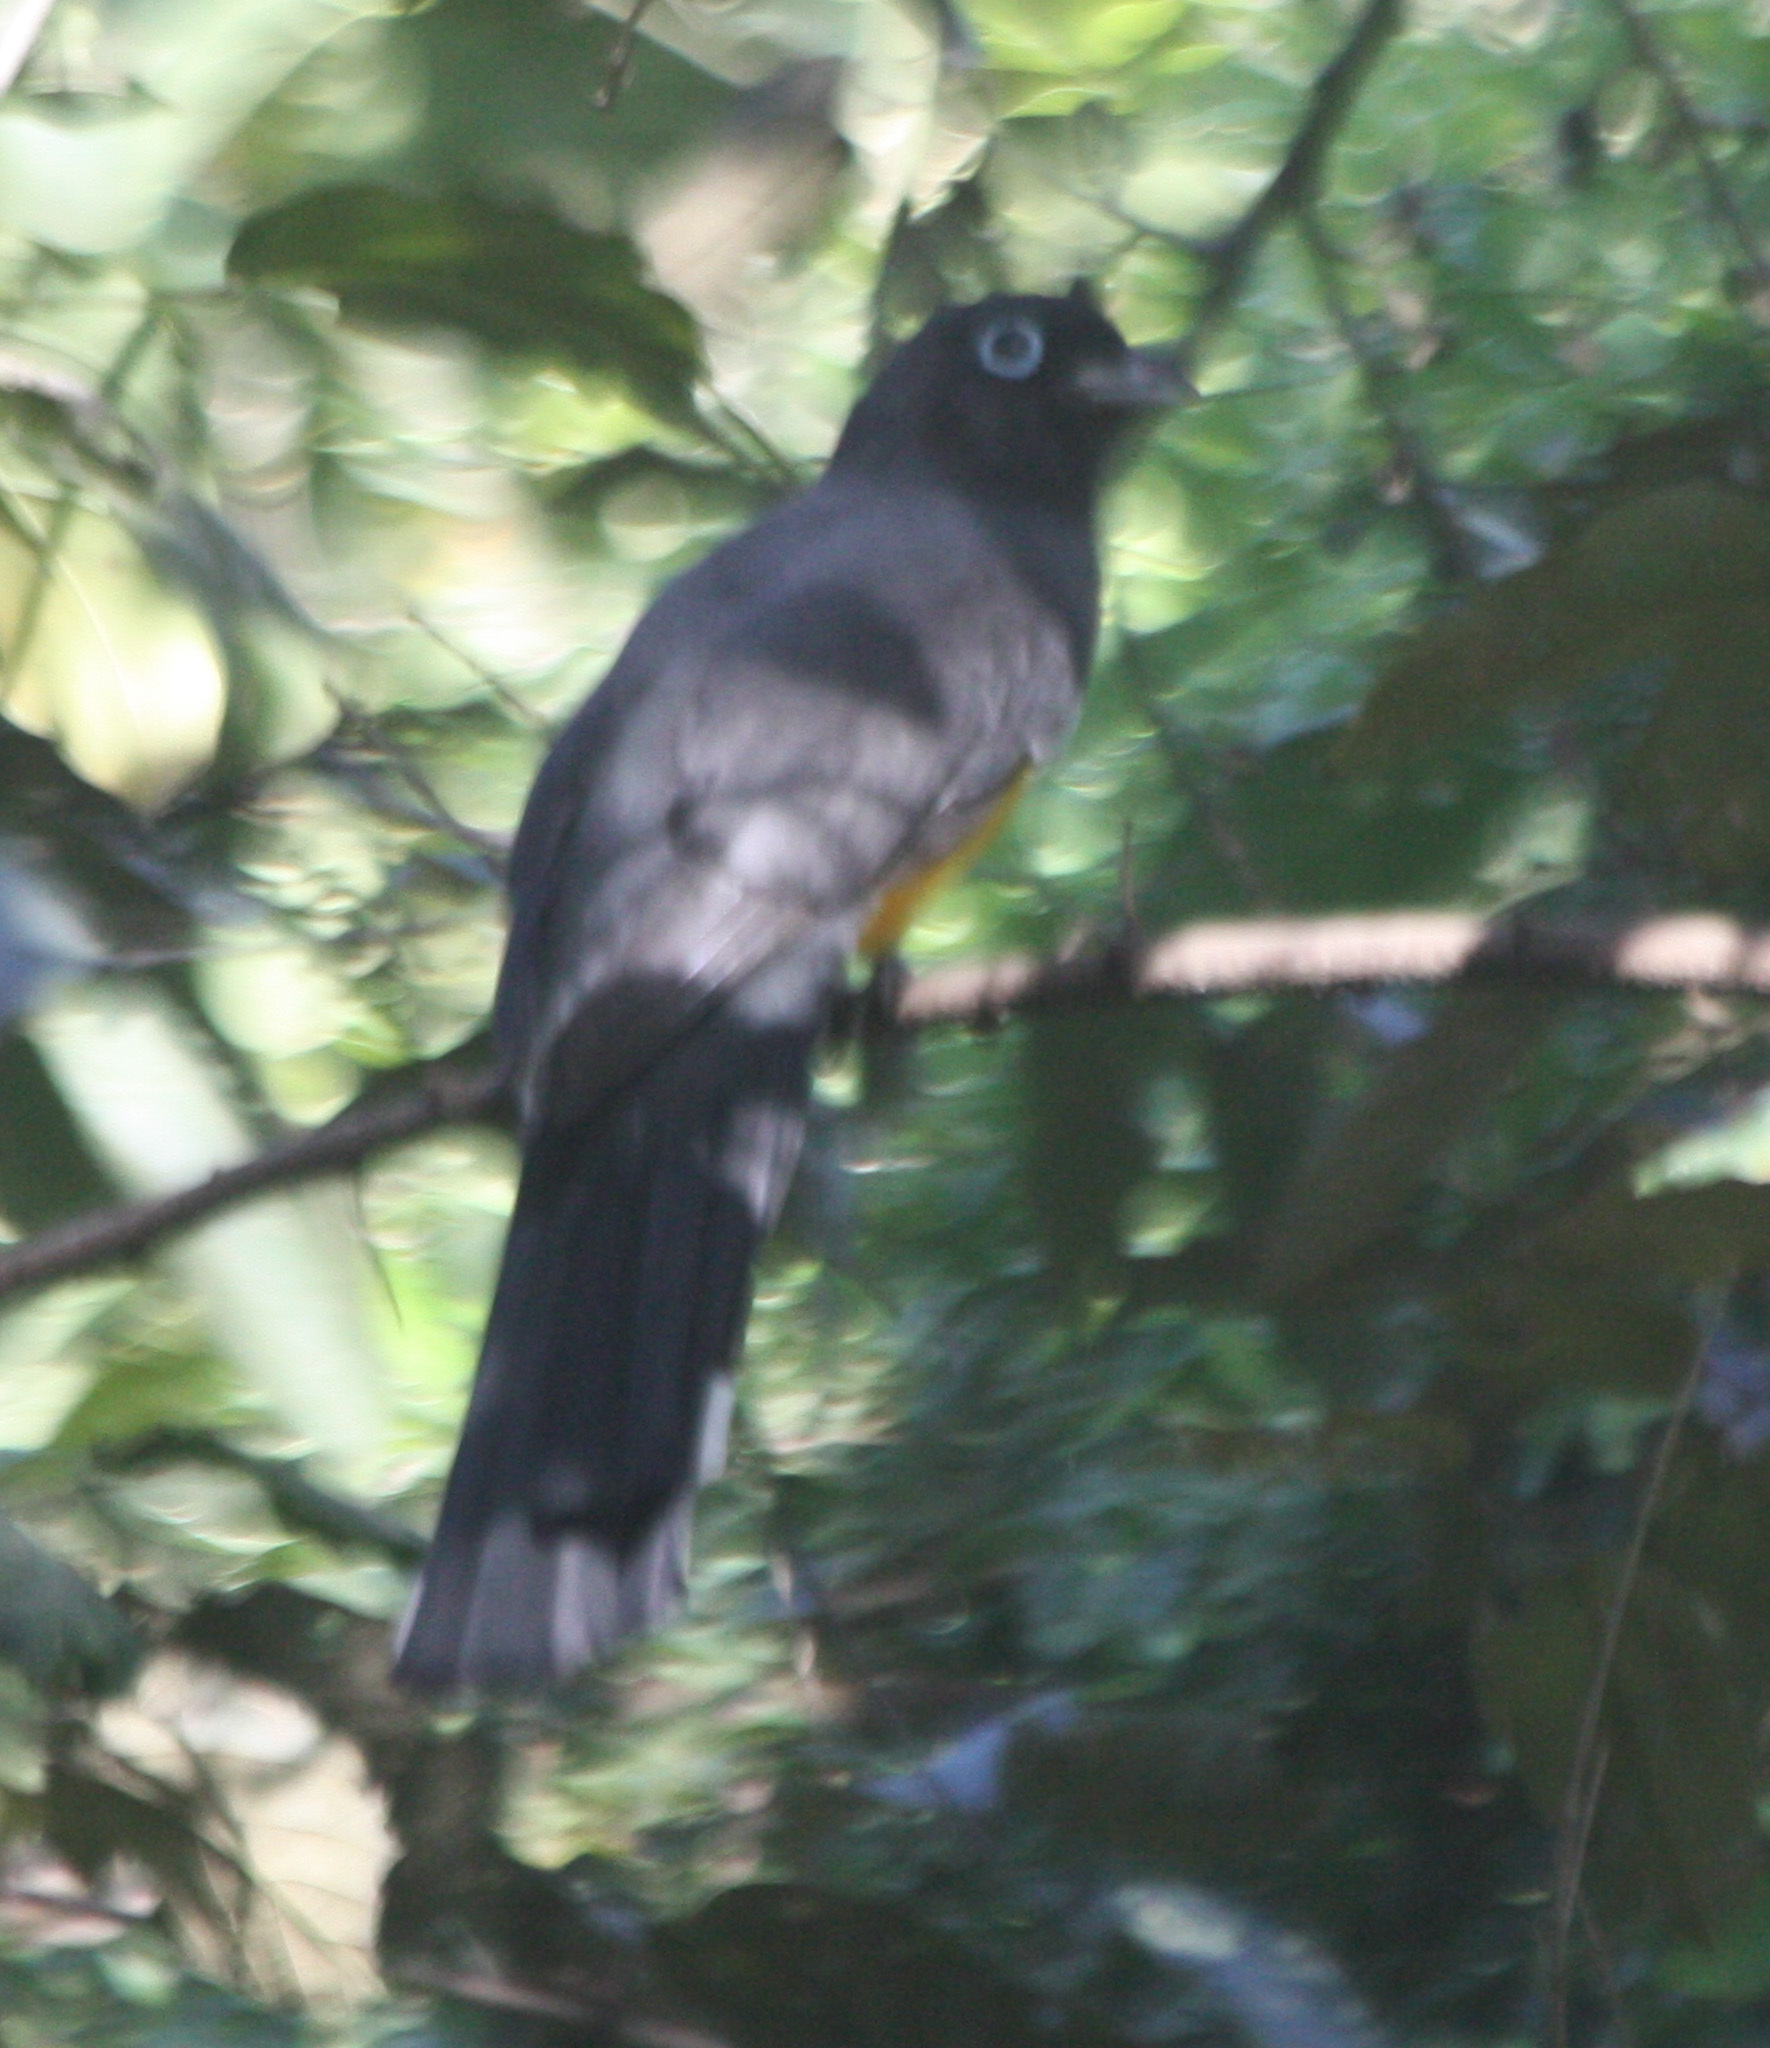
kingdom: Animalia
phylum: Chordata
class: Aves
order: Trogoniformes
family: Trogonidae
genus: Trogon
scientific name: Trogon melanocephalus
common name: Black-headed trogon
